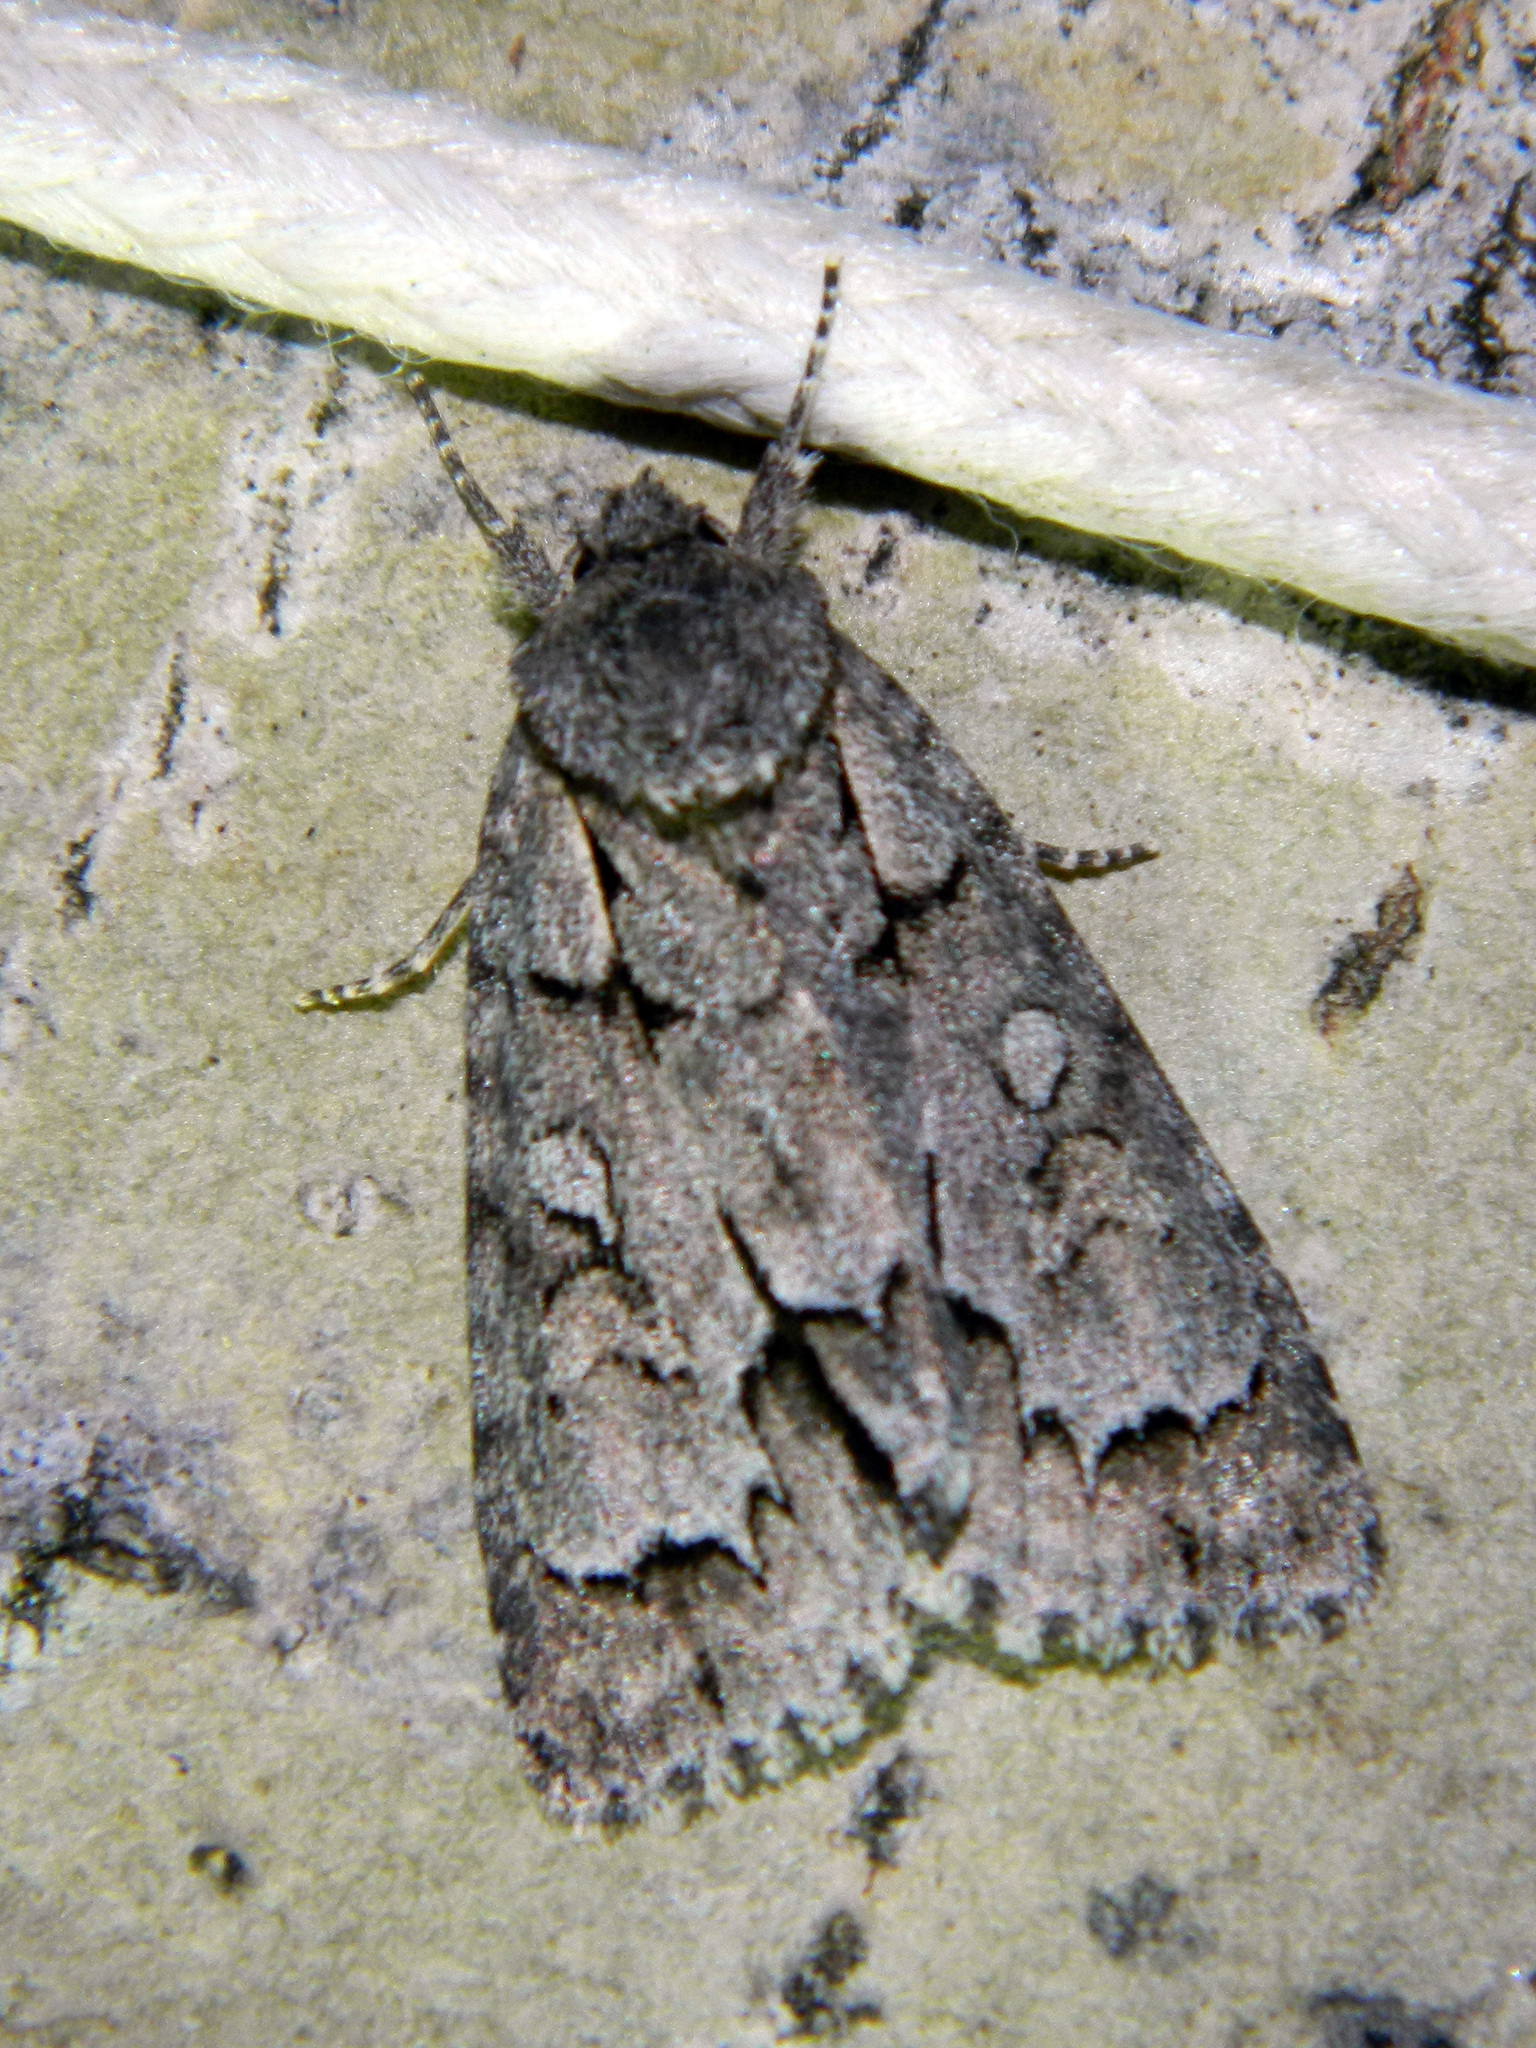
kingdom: Animalia
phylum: Arthropoda
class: Insecta
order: Lepidoptera
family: Noctuidae
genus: Acronicta
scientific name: Acronicta grisea
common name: Gray dagger
